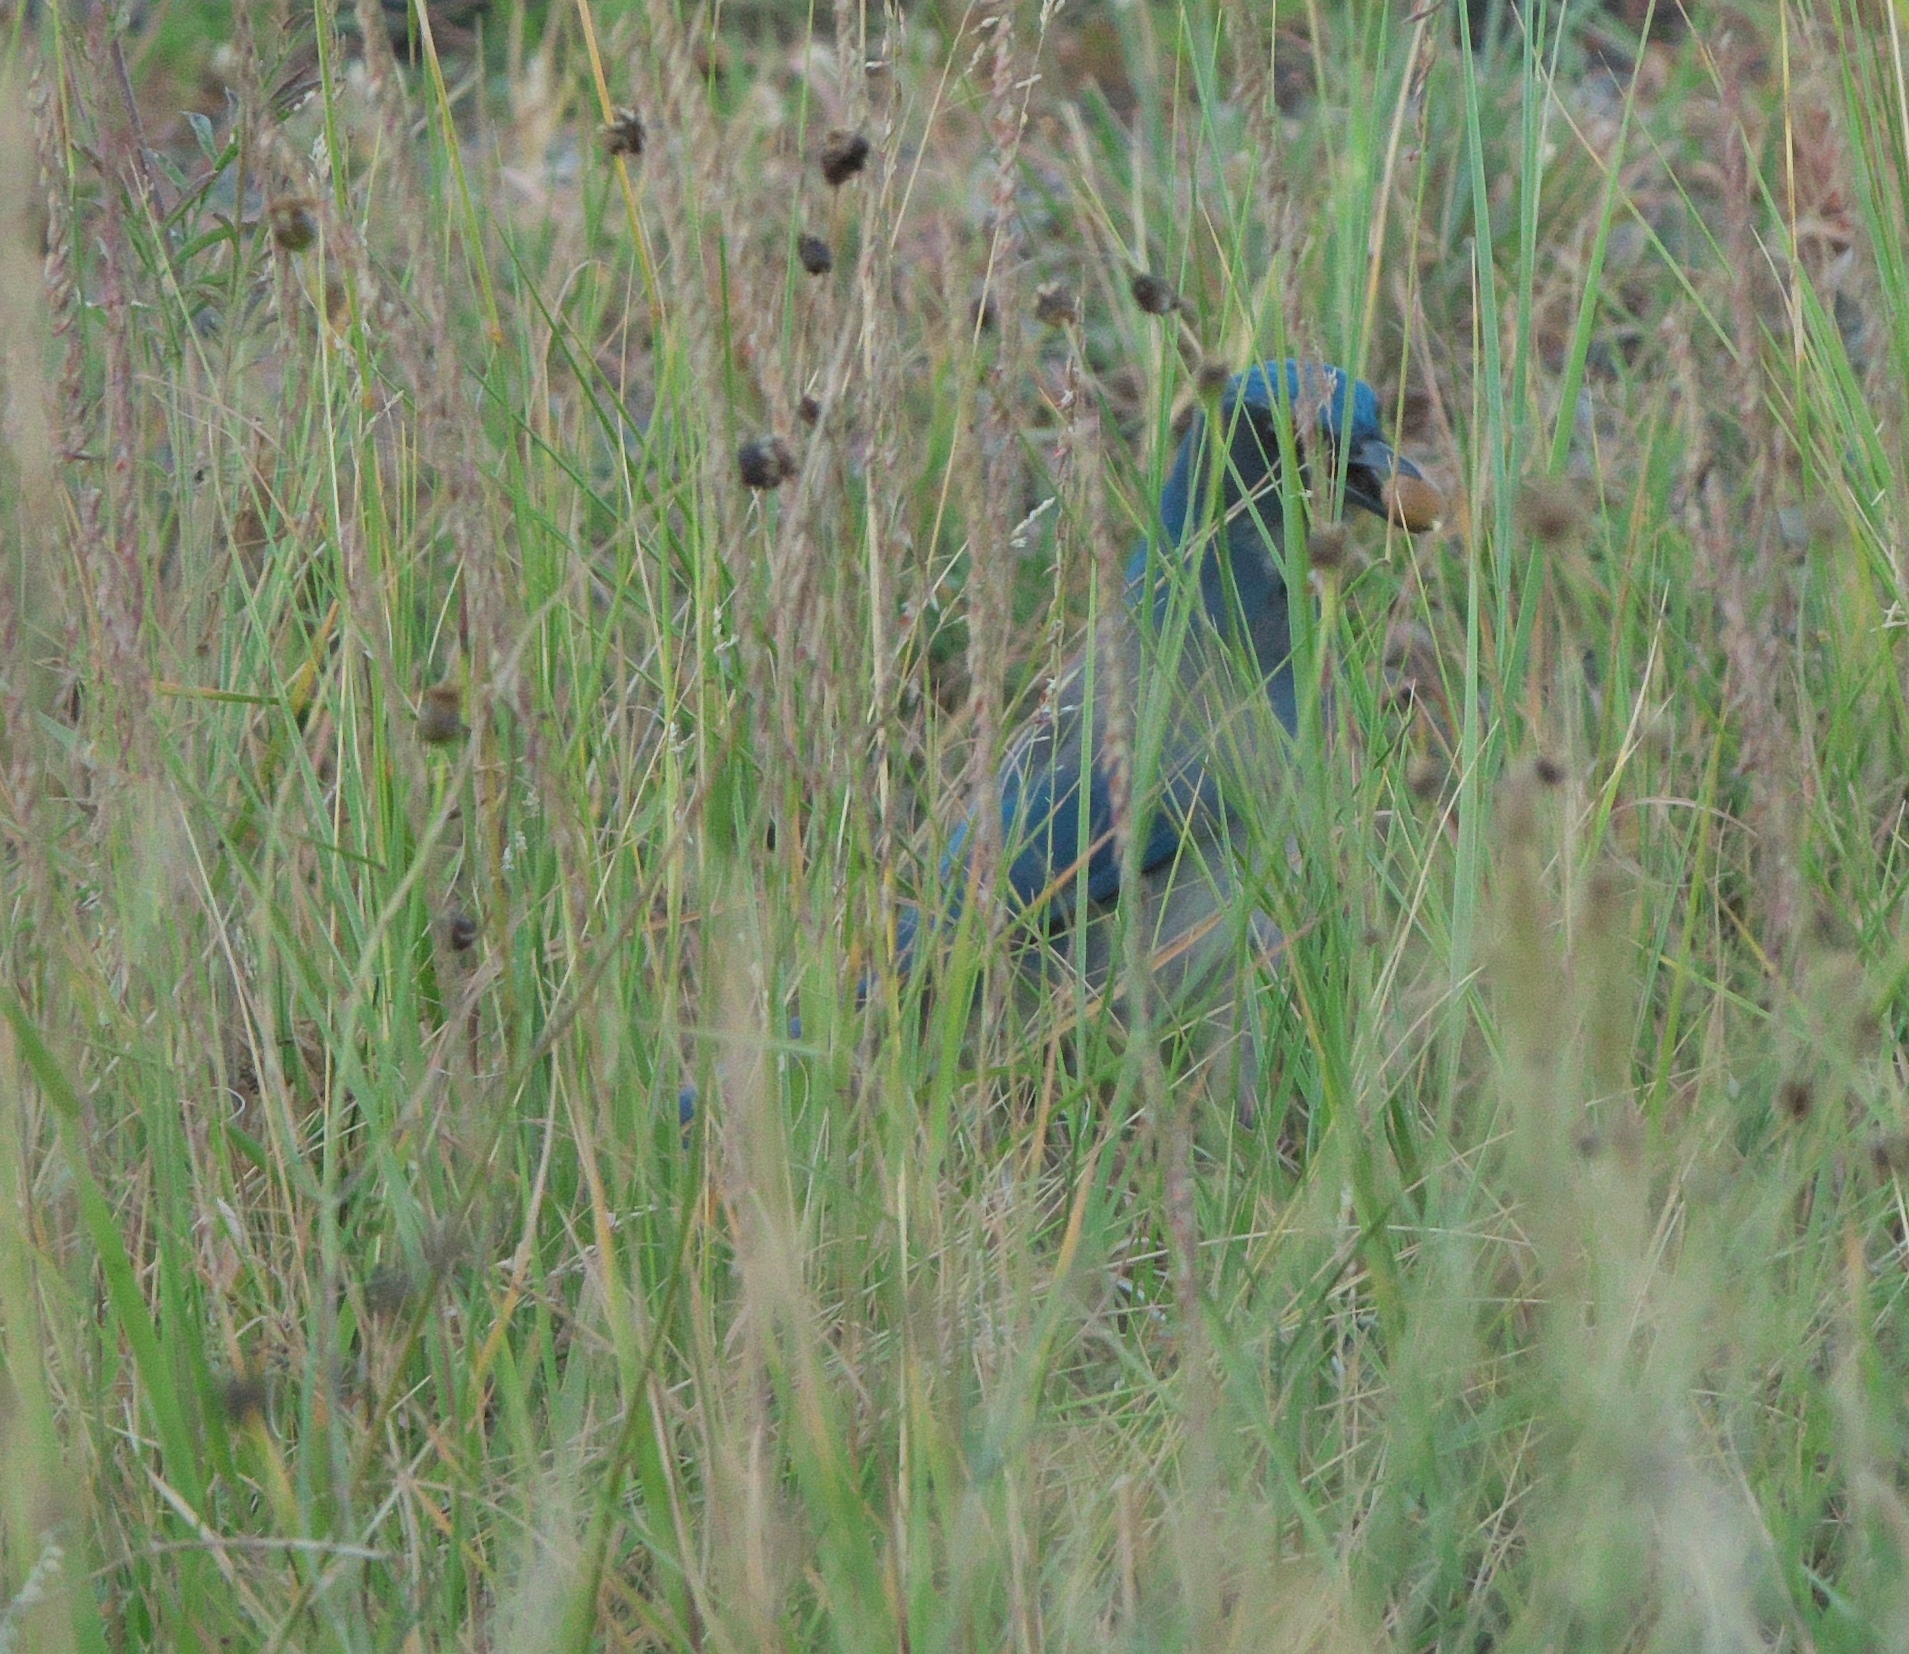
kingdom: Animalia
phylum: Chordata
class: Aves
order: Passeriformes
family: Corvidae
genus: Aphelocoma
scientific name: Aphelocoma woodhouseii
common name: Woodhouse's scrub-jay
